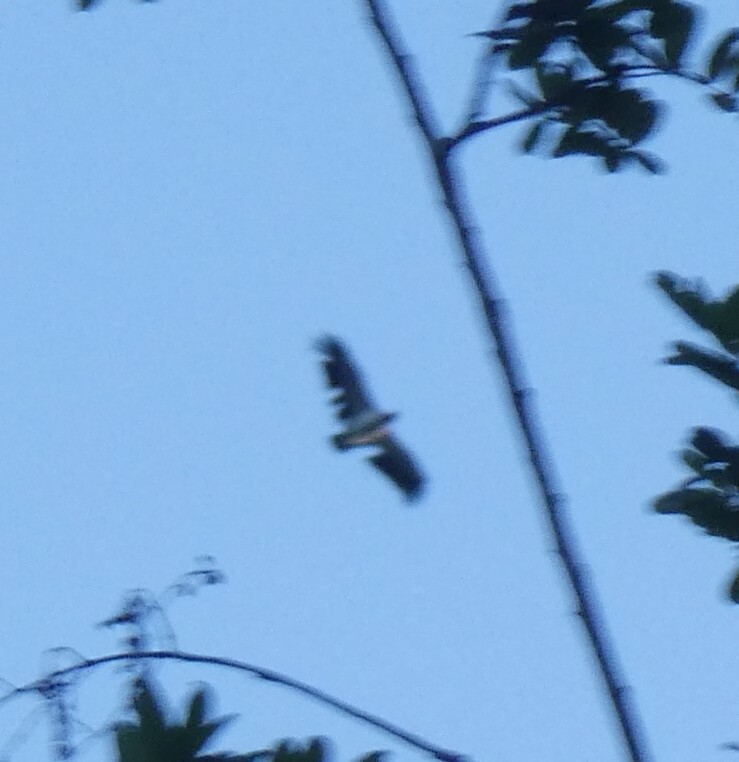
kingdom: Animalia
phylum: Chordata
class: Aves
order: Accipitriformes
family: Cathartidae
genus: Sarcoramphus
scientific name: Sarcoramphus papa
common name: King vulture
